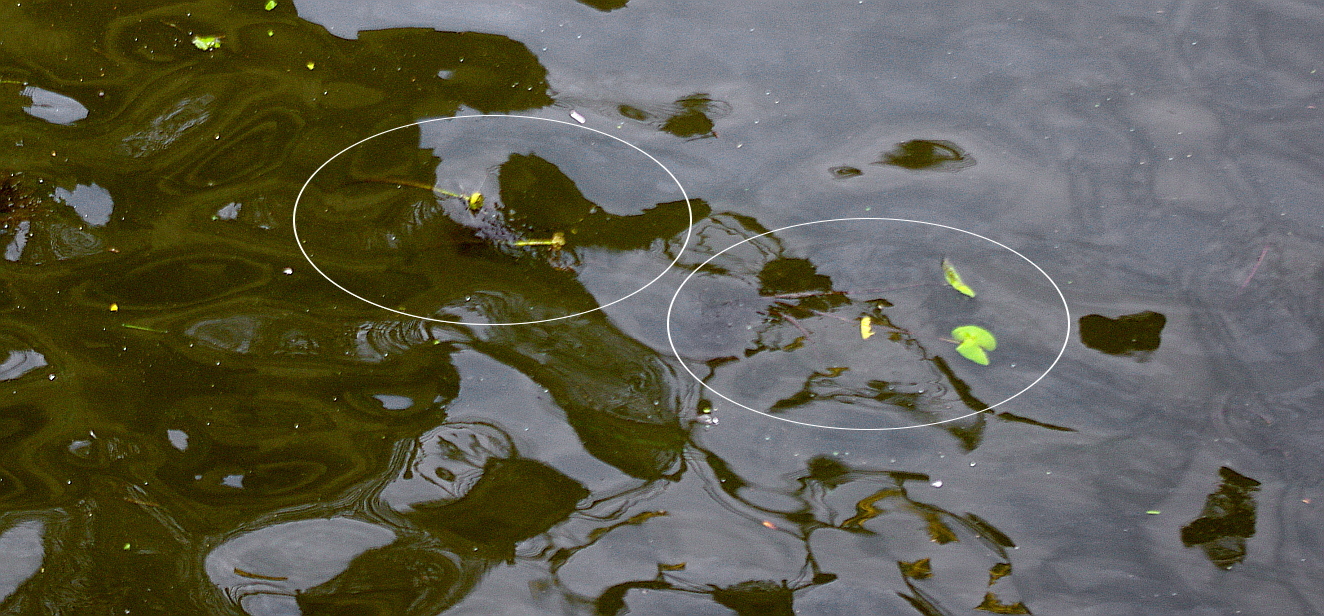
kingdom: Plantae
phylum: Tracheophyta
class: Magnoliopsida
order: Nymphaeales
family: Nymphaeaceae
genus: Nuphar
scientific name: Nuphar lutea
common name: Yellow water-lily
